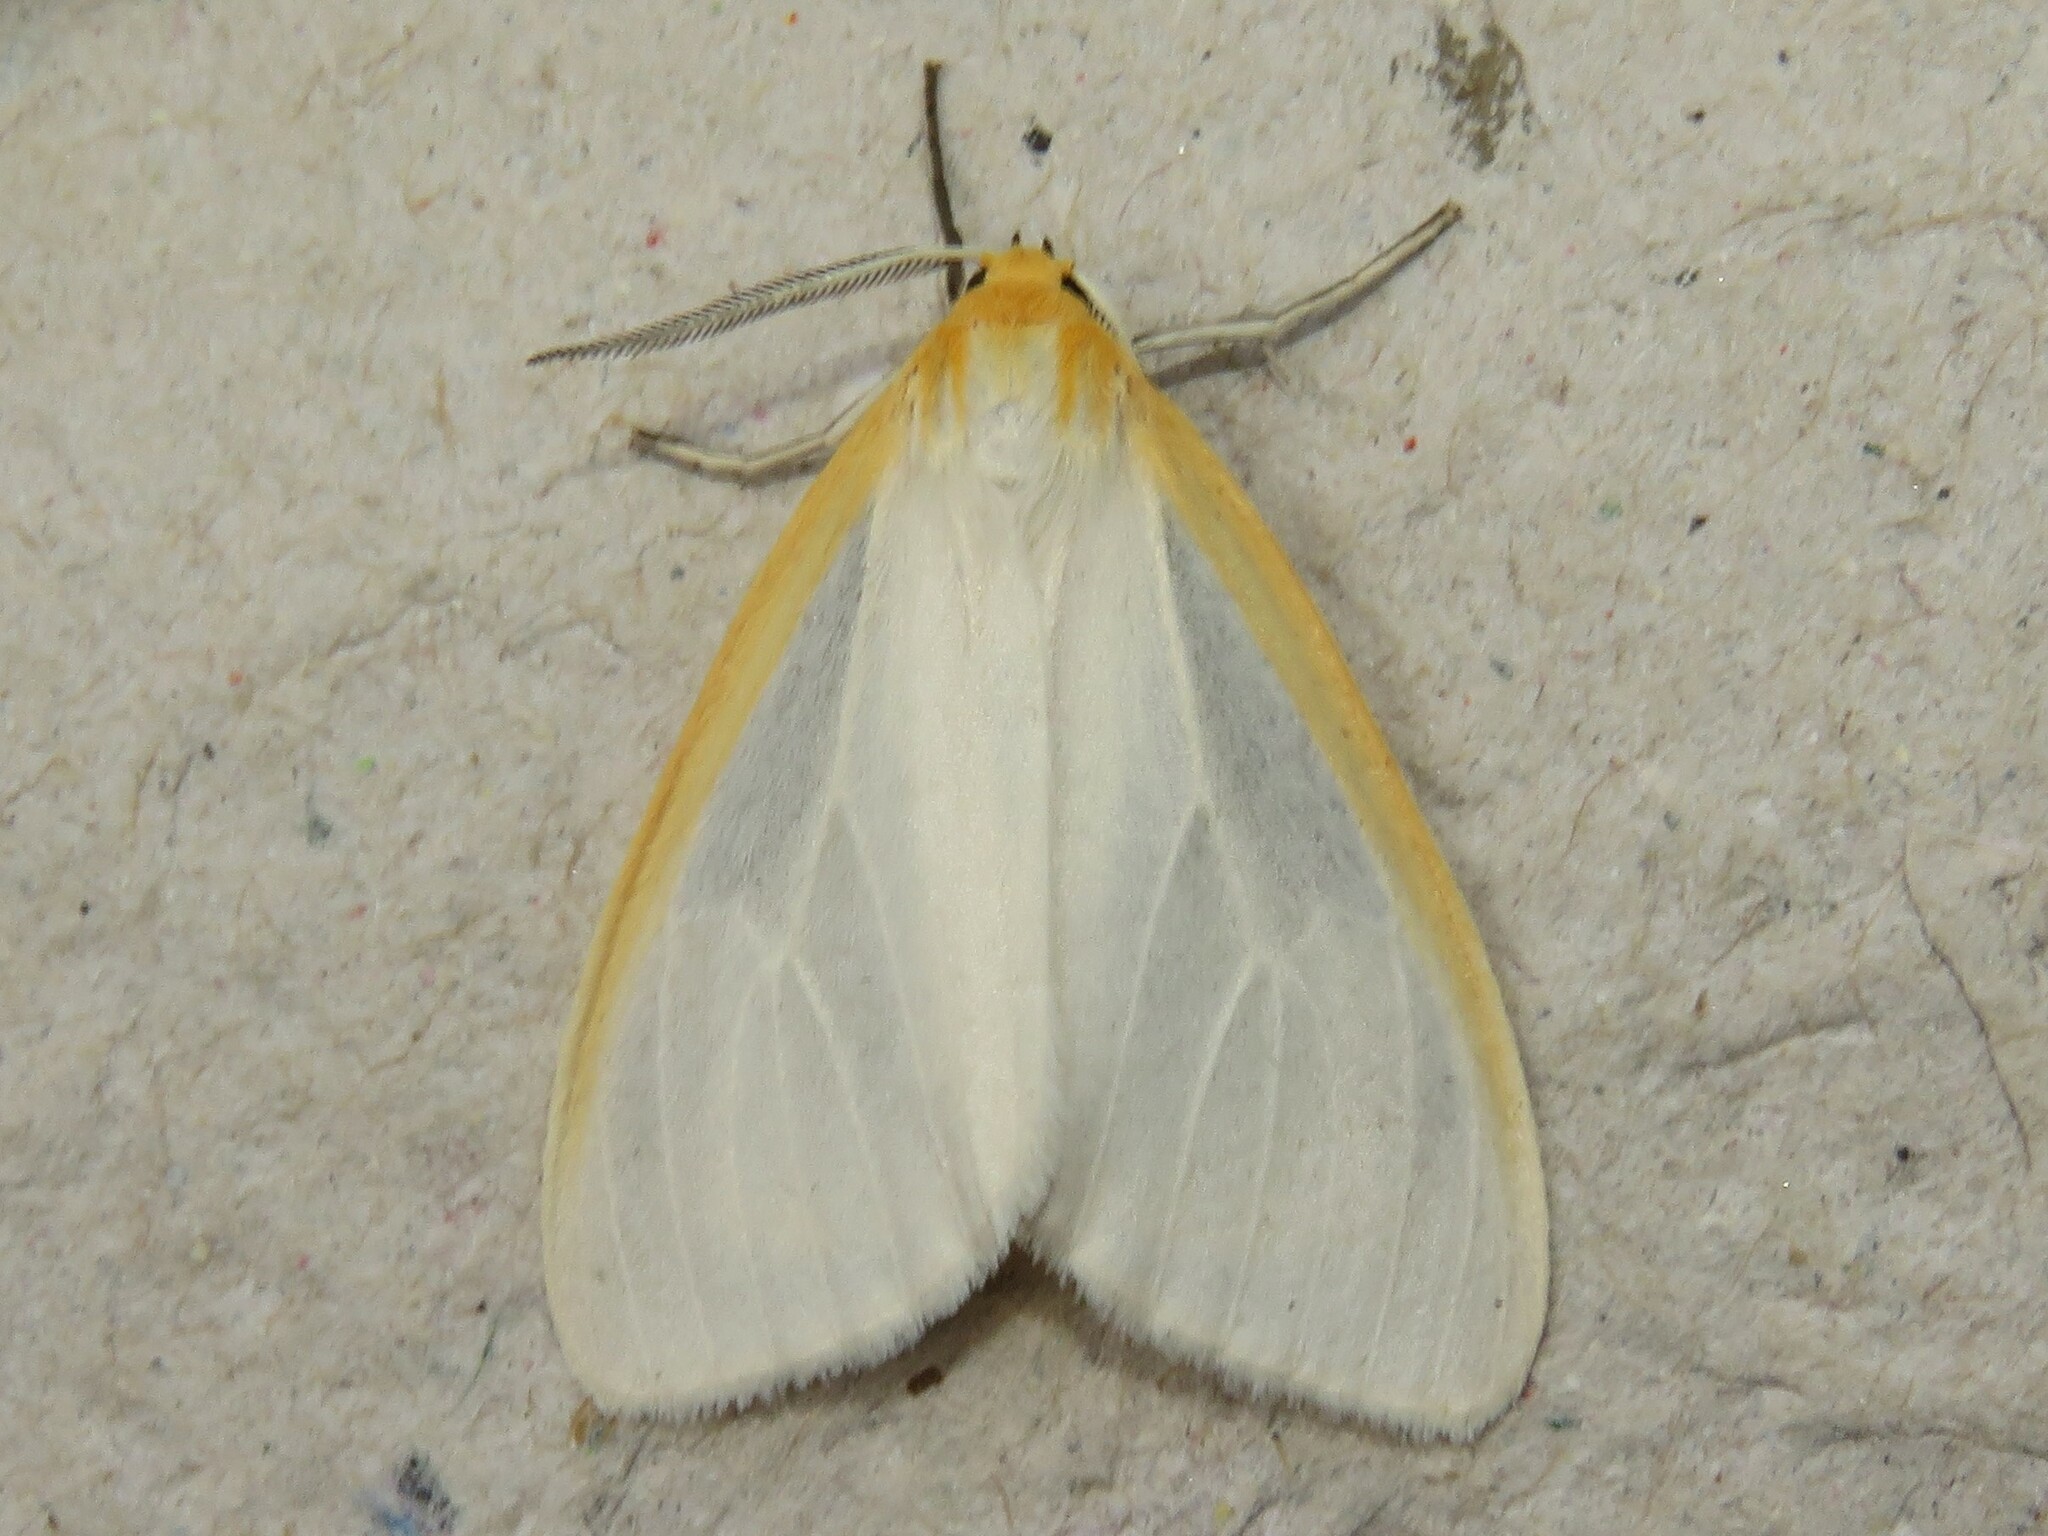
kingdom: Animalia
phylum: Arthropoda
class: Insecta
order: Lepidoptera
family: Erebidae
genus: Cycnia
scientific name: Cycnia tenera
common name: Delicate cycnia moth
